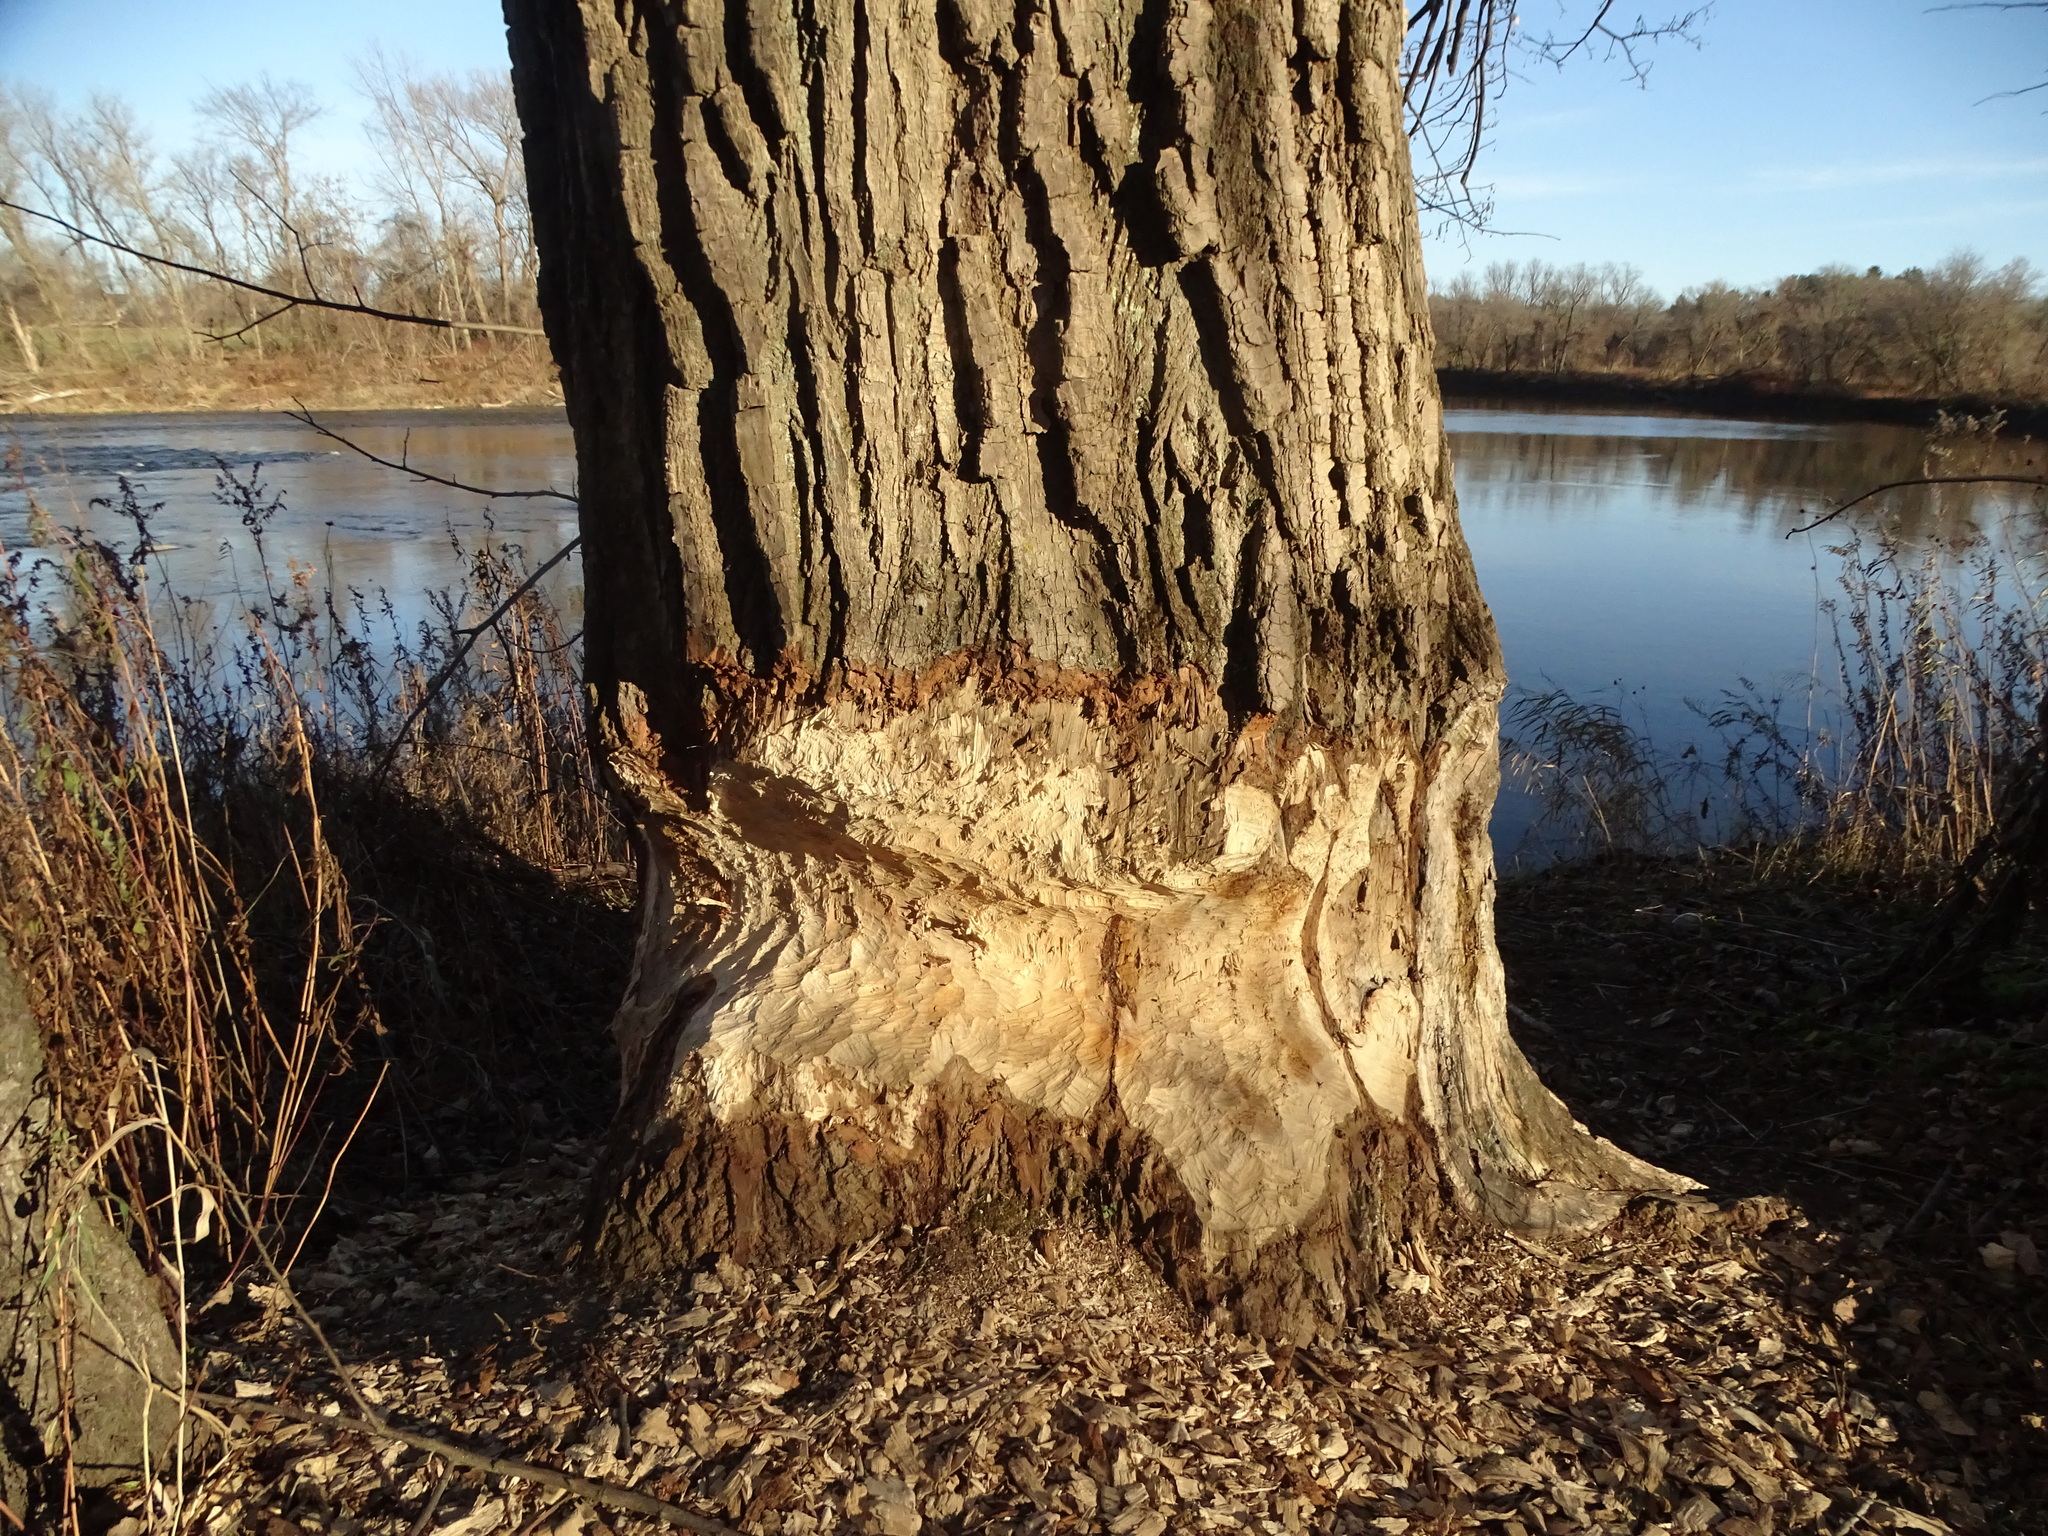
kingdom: Animalia
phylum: Chordata
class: Mammalia
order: Rodentia
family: Castoridae
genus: Castor
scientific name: Castor canadensis
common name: American beaver
